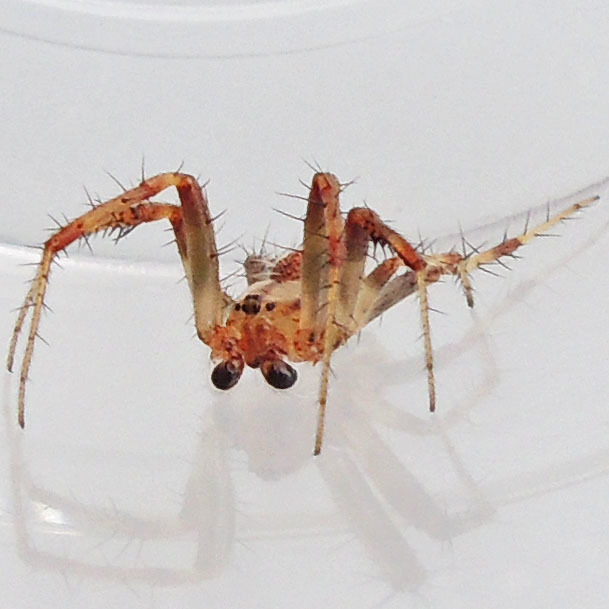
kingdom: Animalia
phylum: Arthropoda
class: Arachnida
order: Araneae
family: Araneidae
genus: Neoscona
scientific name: Neoscona arabesca
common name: Orb weavers
